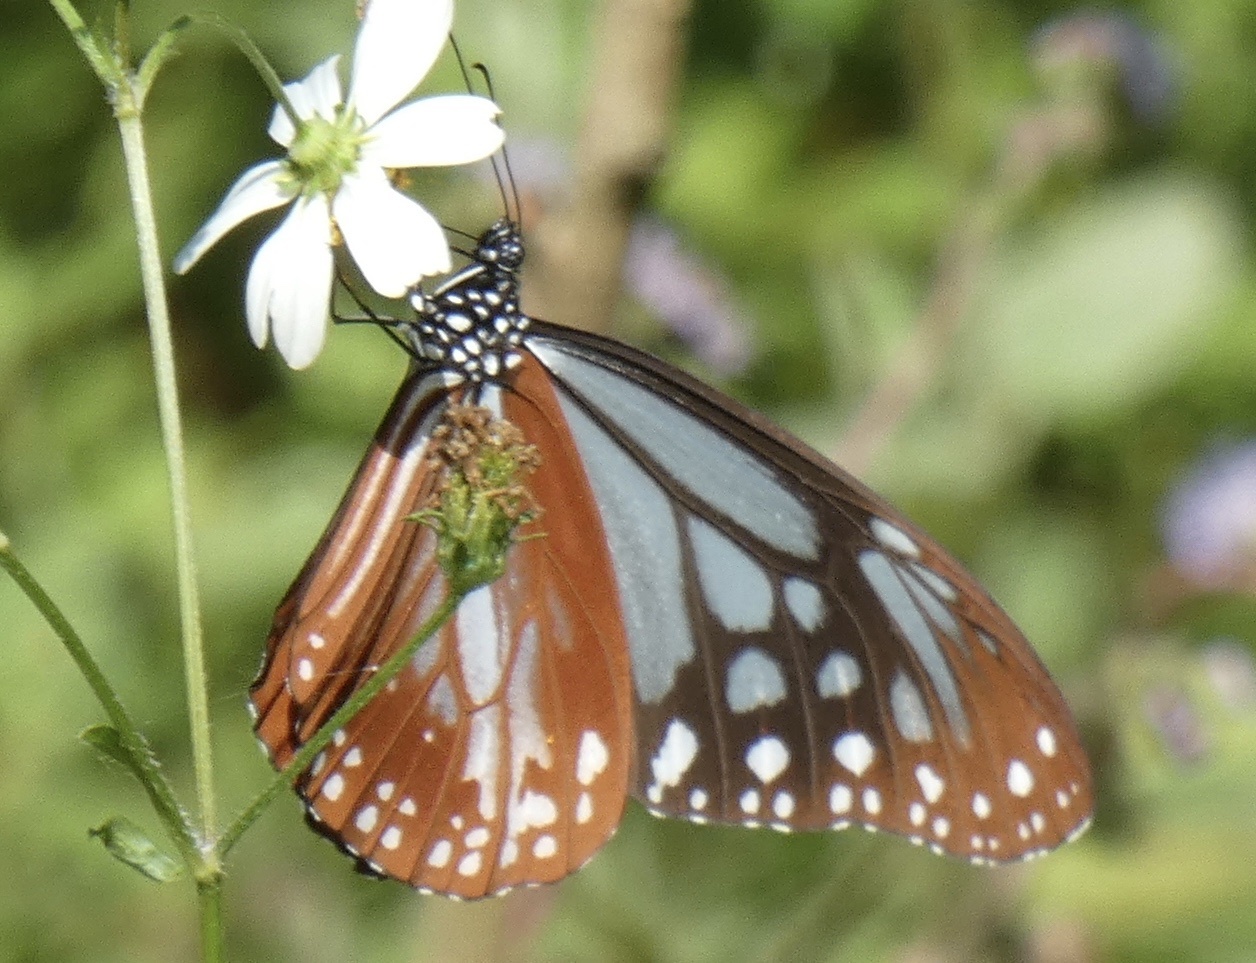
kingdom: Animalia
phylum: Arthropoda
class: Insecta
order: Lepidoptera
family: Nymphalidae
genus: Parantica
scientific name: Parantica sita
